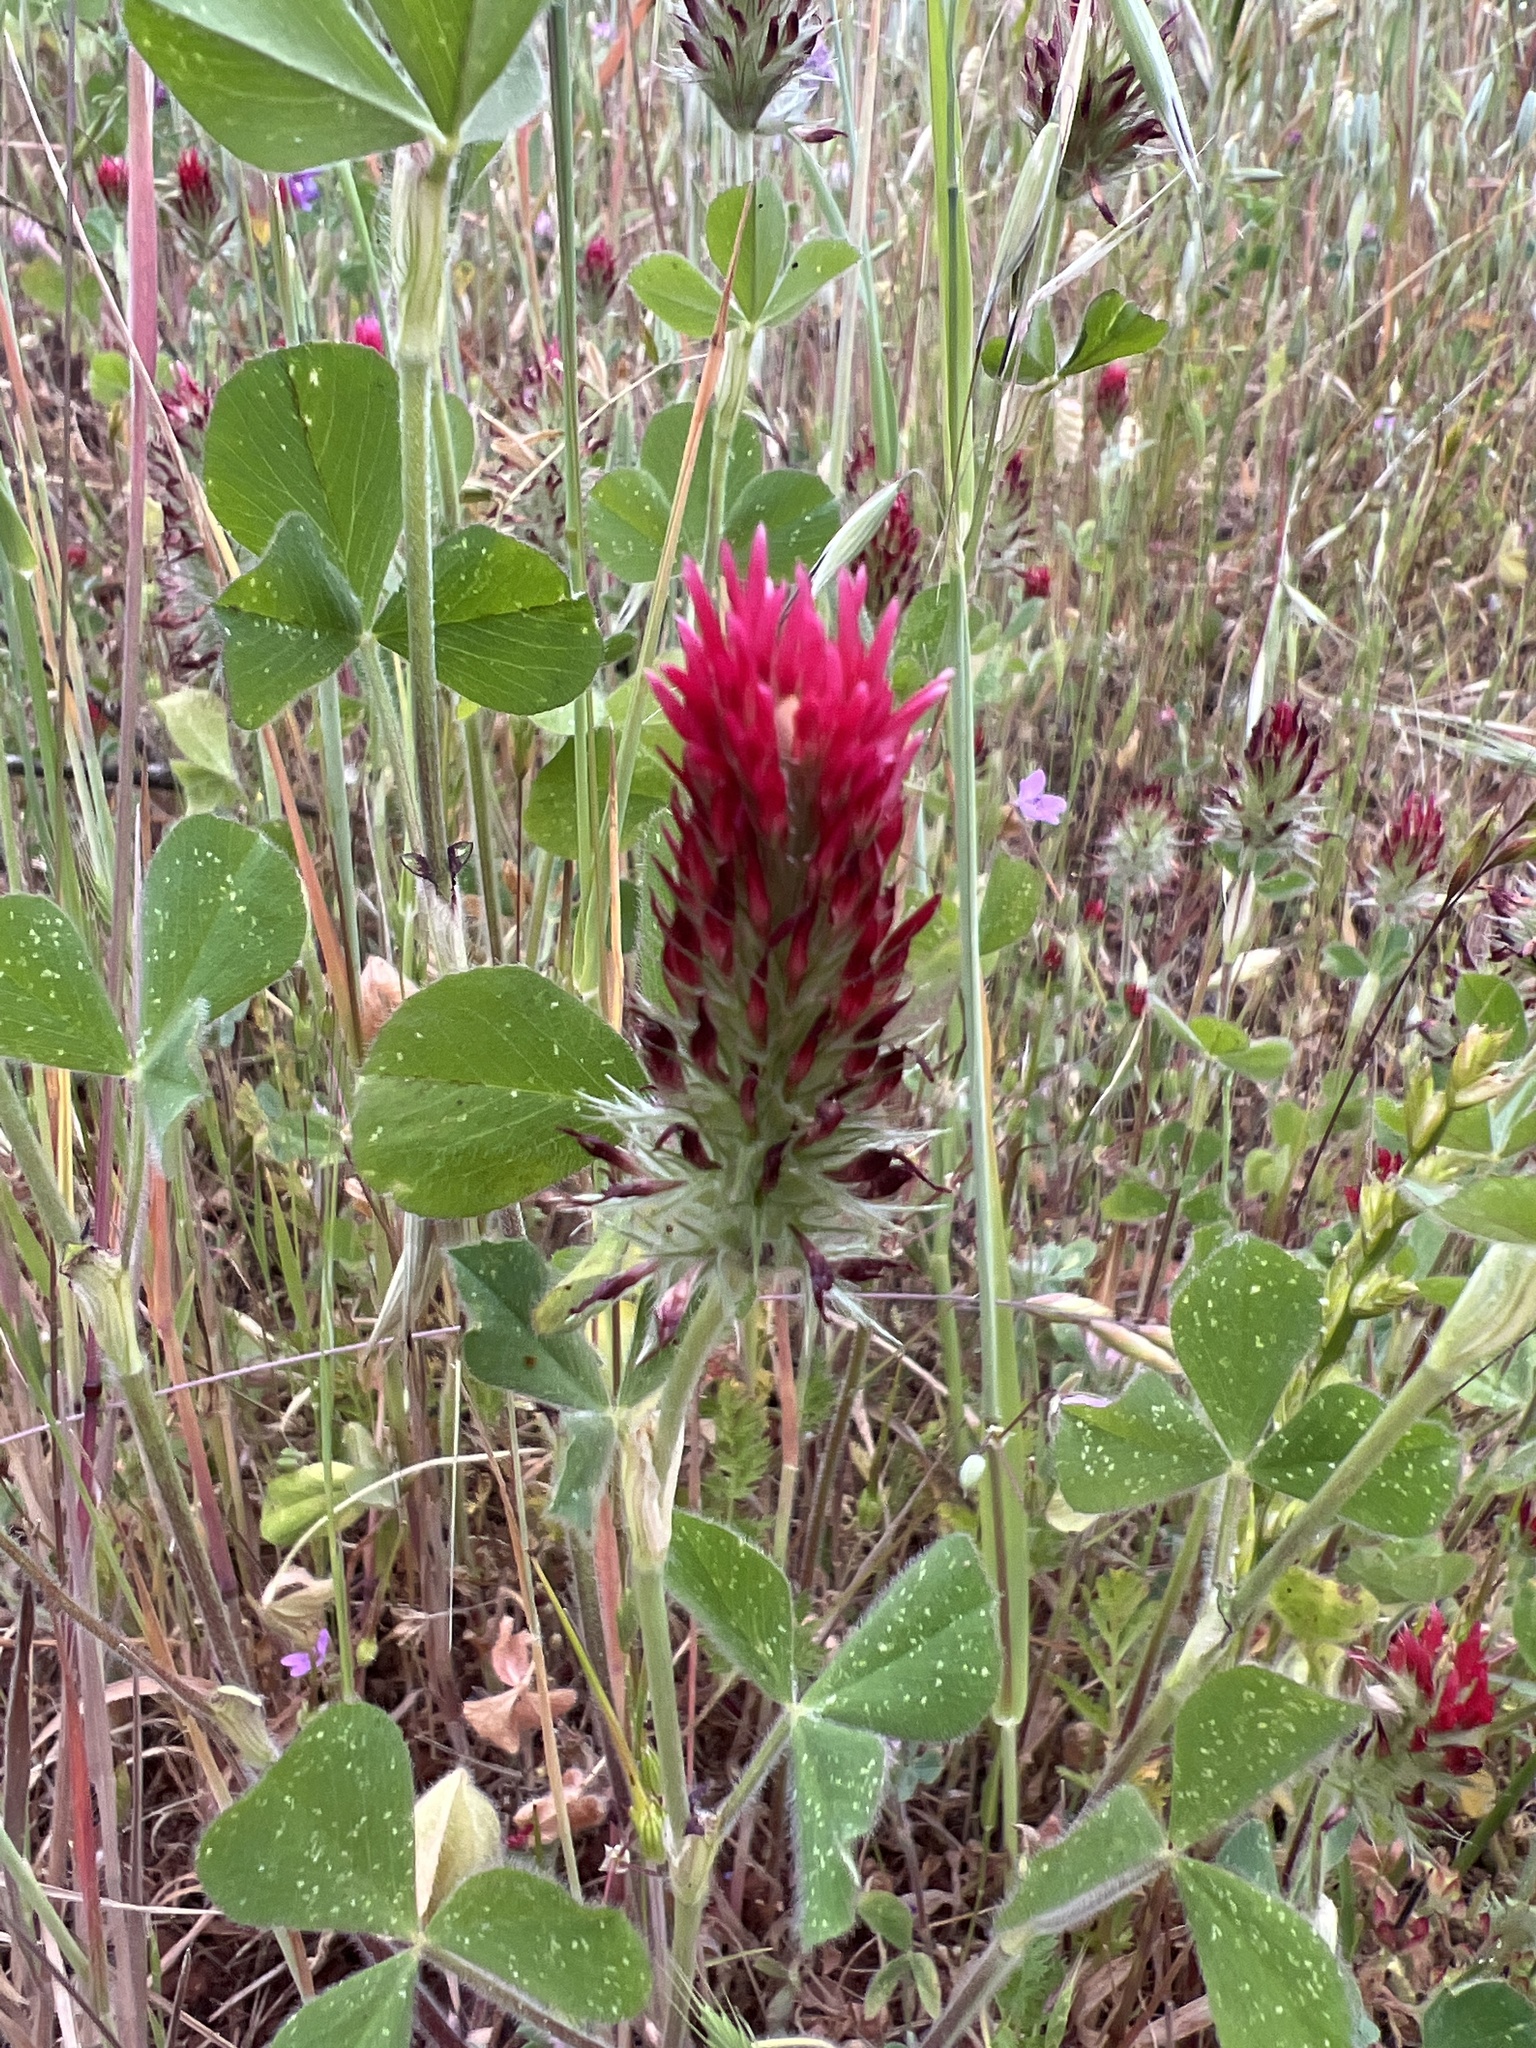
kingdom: Plantae
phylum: Tracheophyta
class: Magnoliopsida
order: Fabales
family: Fabaceae
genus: Trifolium
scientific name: Trifolium incarnatum
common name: Crimson clover
